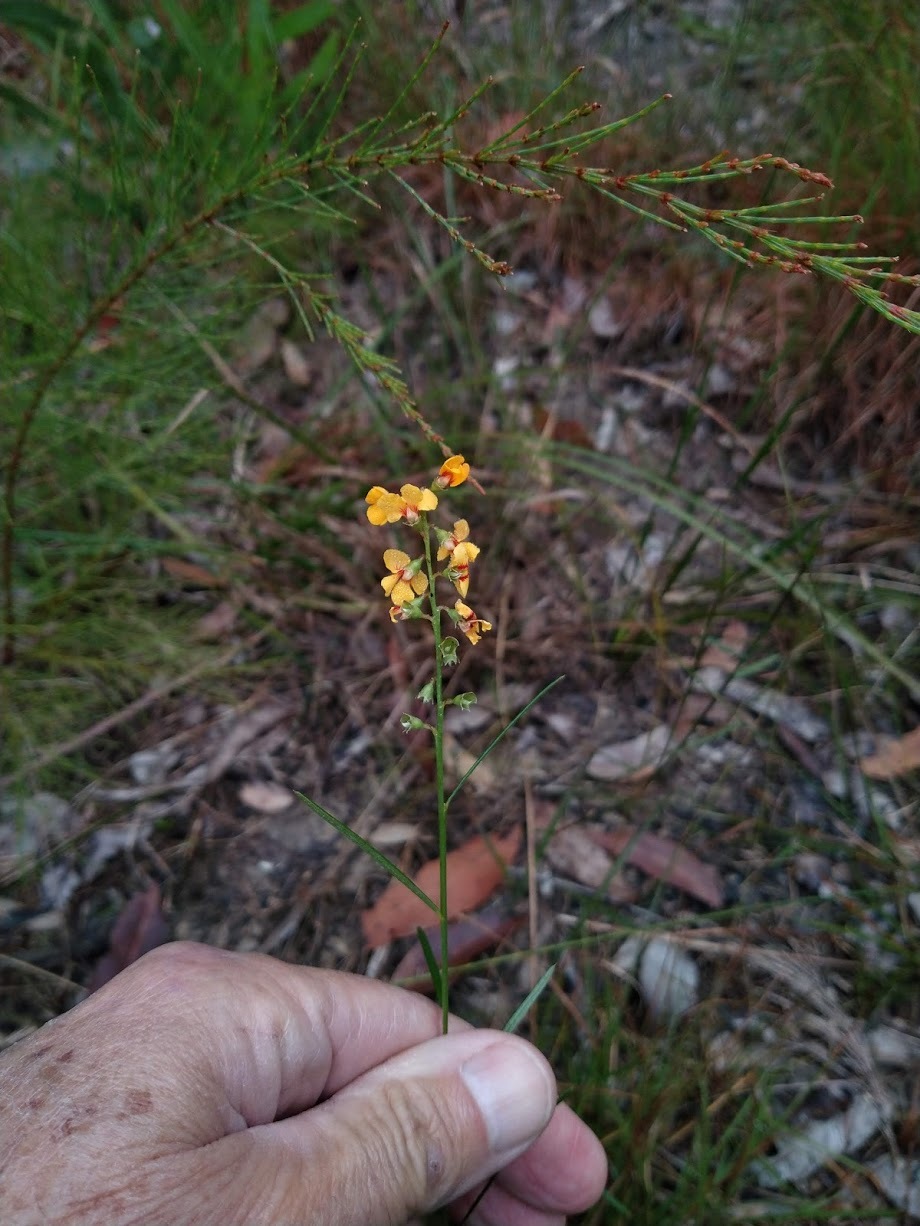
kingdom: Plantae
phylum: Tracheophyta
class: Magnoliopsida
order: Fabales
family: Fabaceae
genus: Chorizema
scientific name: Chorizema parviflorum
